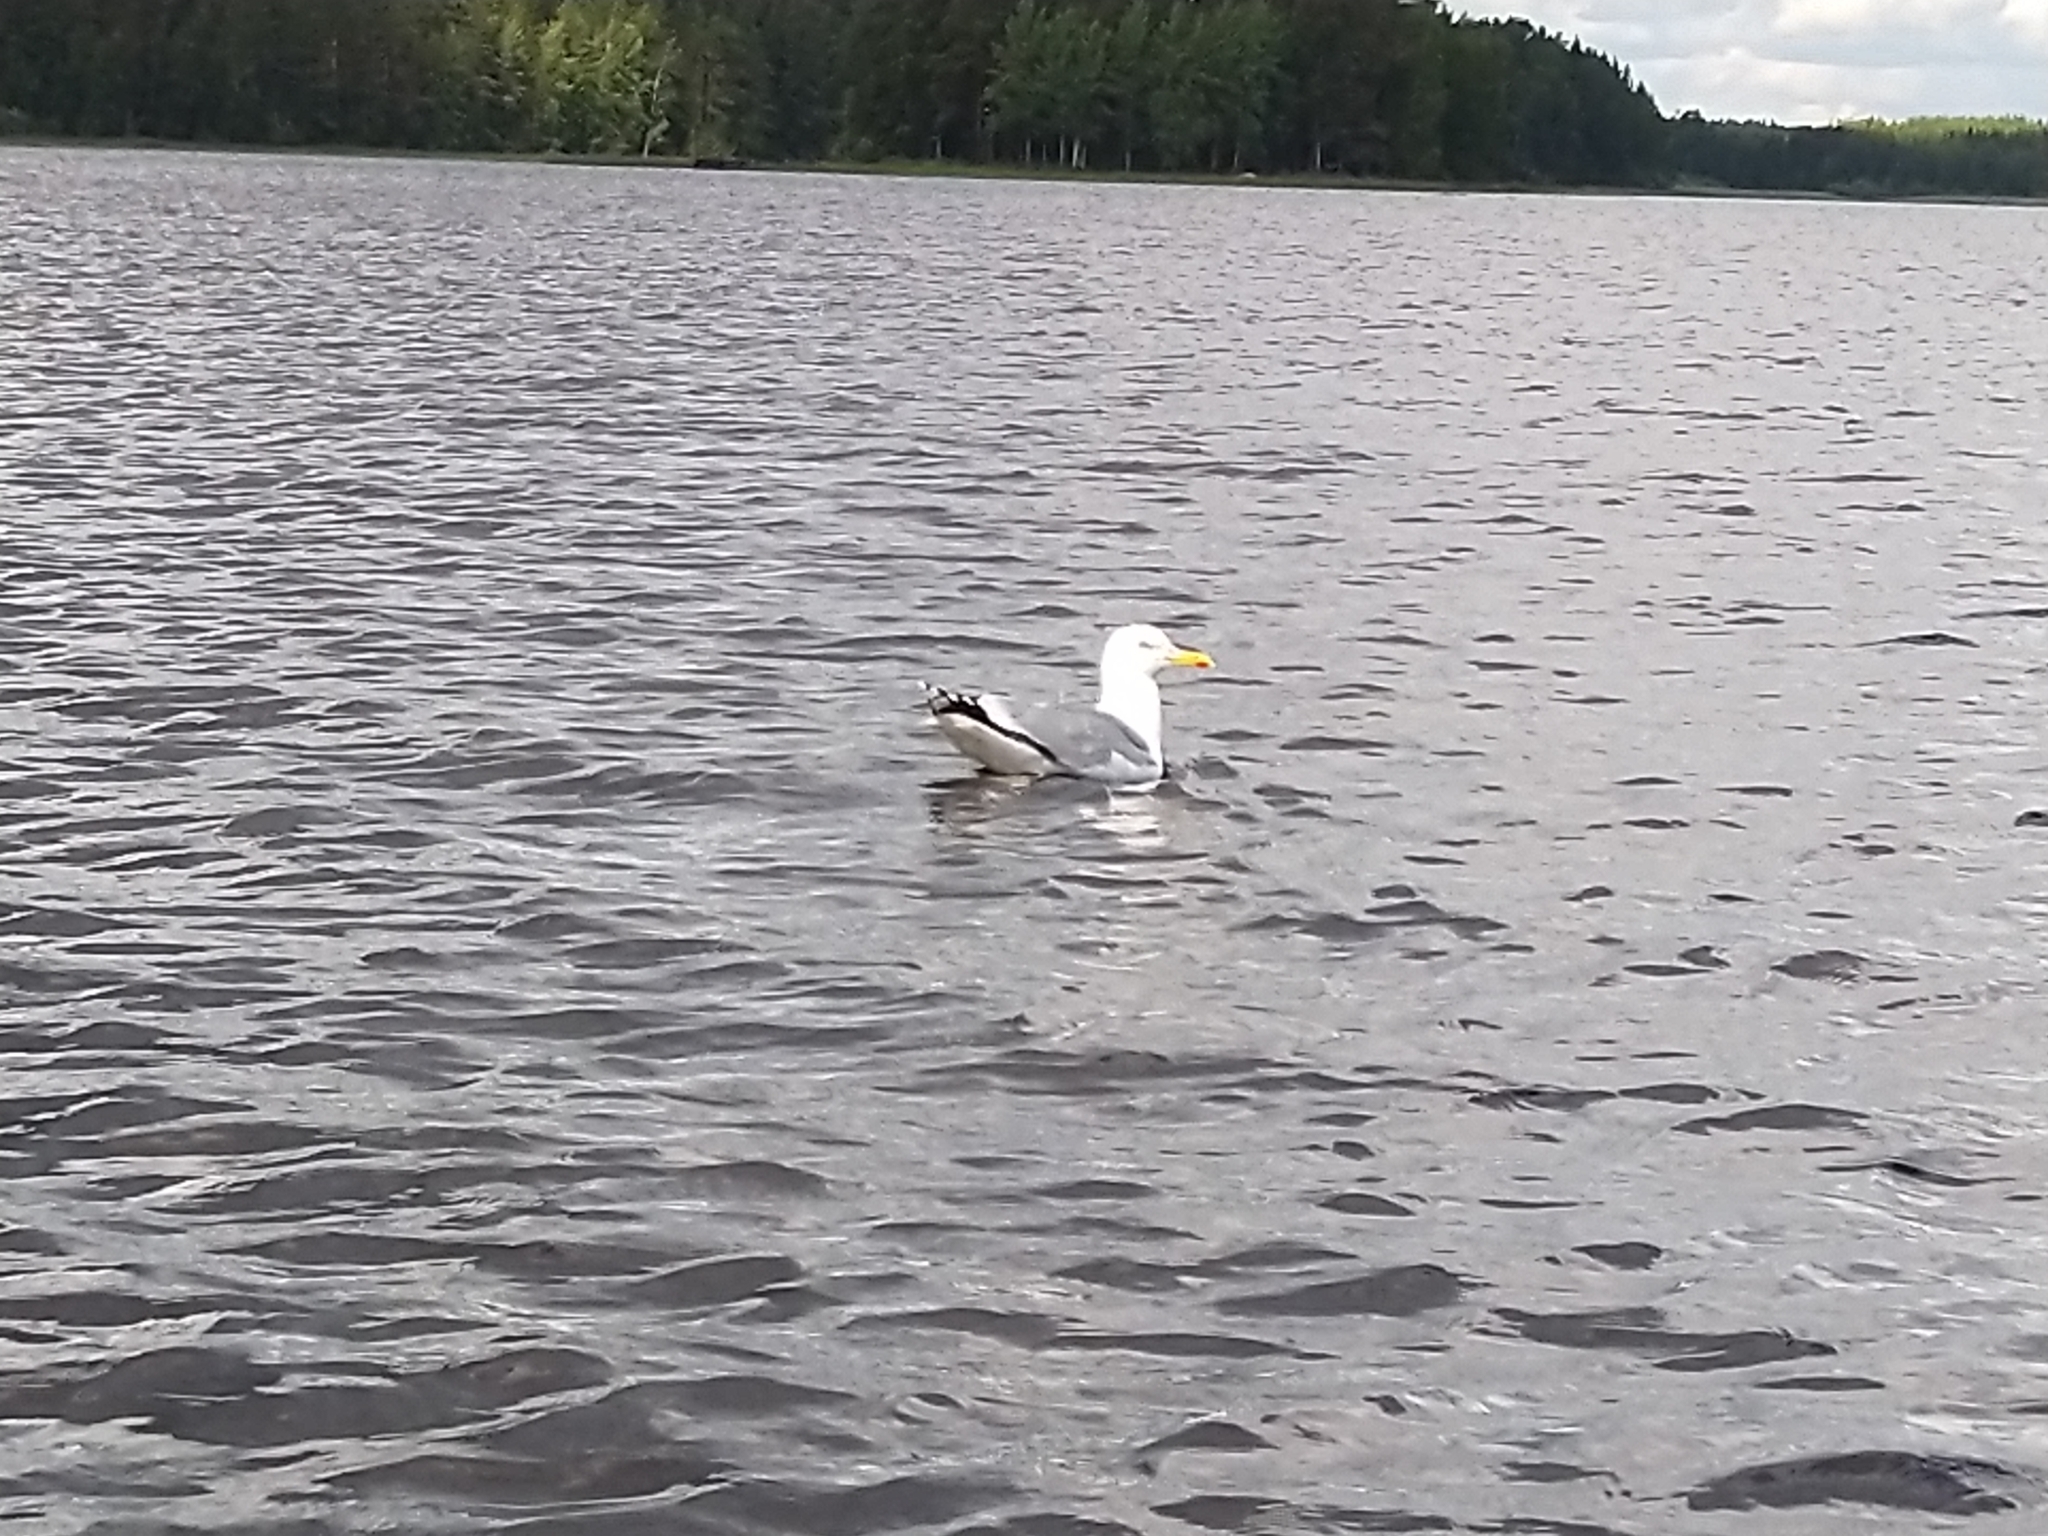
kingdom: Animalia
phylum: Chordata
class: Aves
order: Charadriiformes
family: Laridae
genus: Larus
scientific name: Larus argentatus
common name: Herring gull
